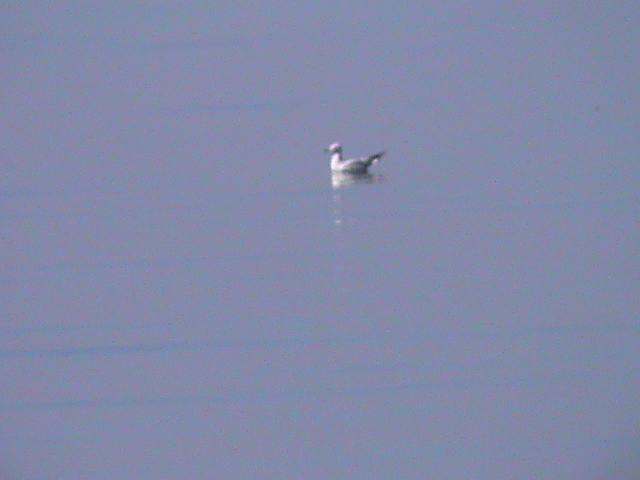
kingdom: Animalia
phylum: Chordata
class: Aves
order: Charadriiformes
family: Laridae
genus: Chroicocephalus
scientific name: Chroicocephalus ridibundus
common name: Black-headed gull
